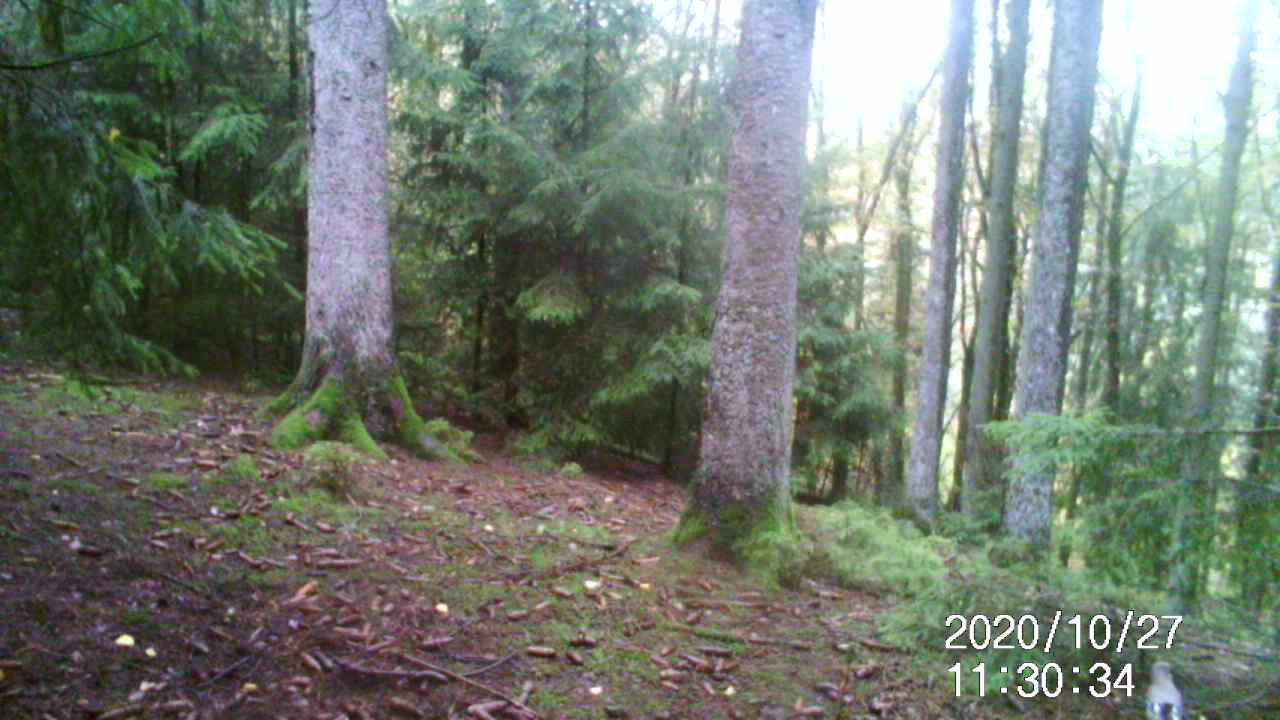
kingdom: Animalia
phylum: Chordata
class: Aves
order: Passeriformes
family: Corvidae
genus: Garrulus
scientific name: Garrulus glandarius
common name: Eurasian jay
